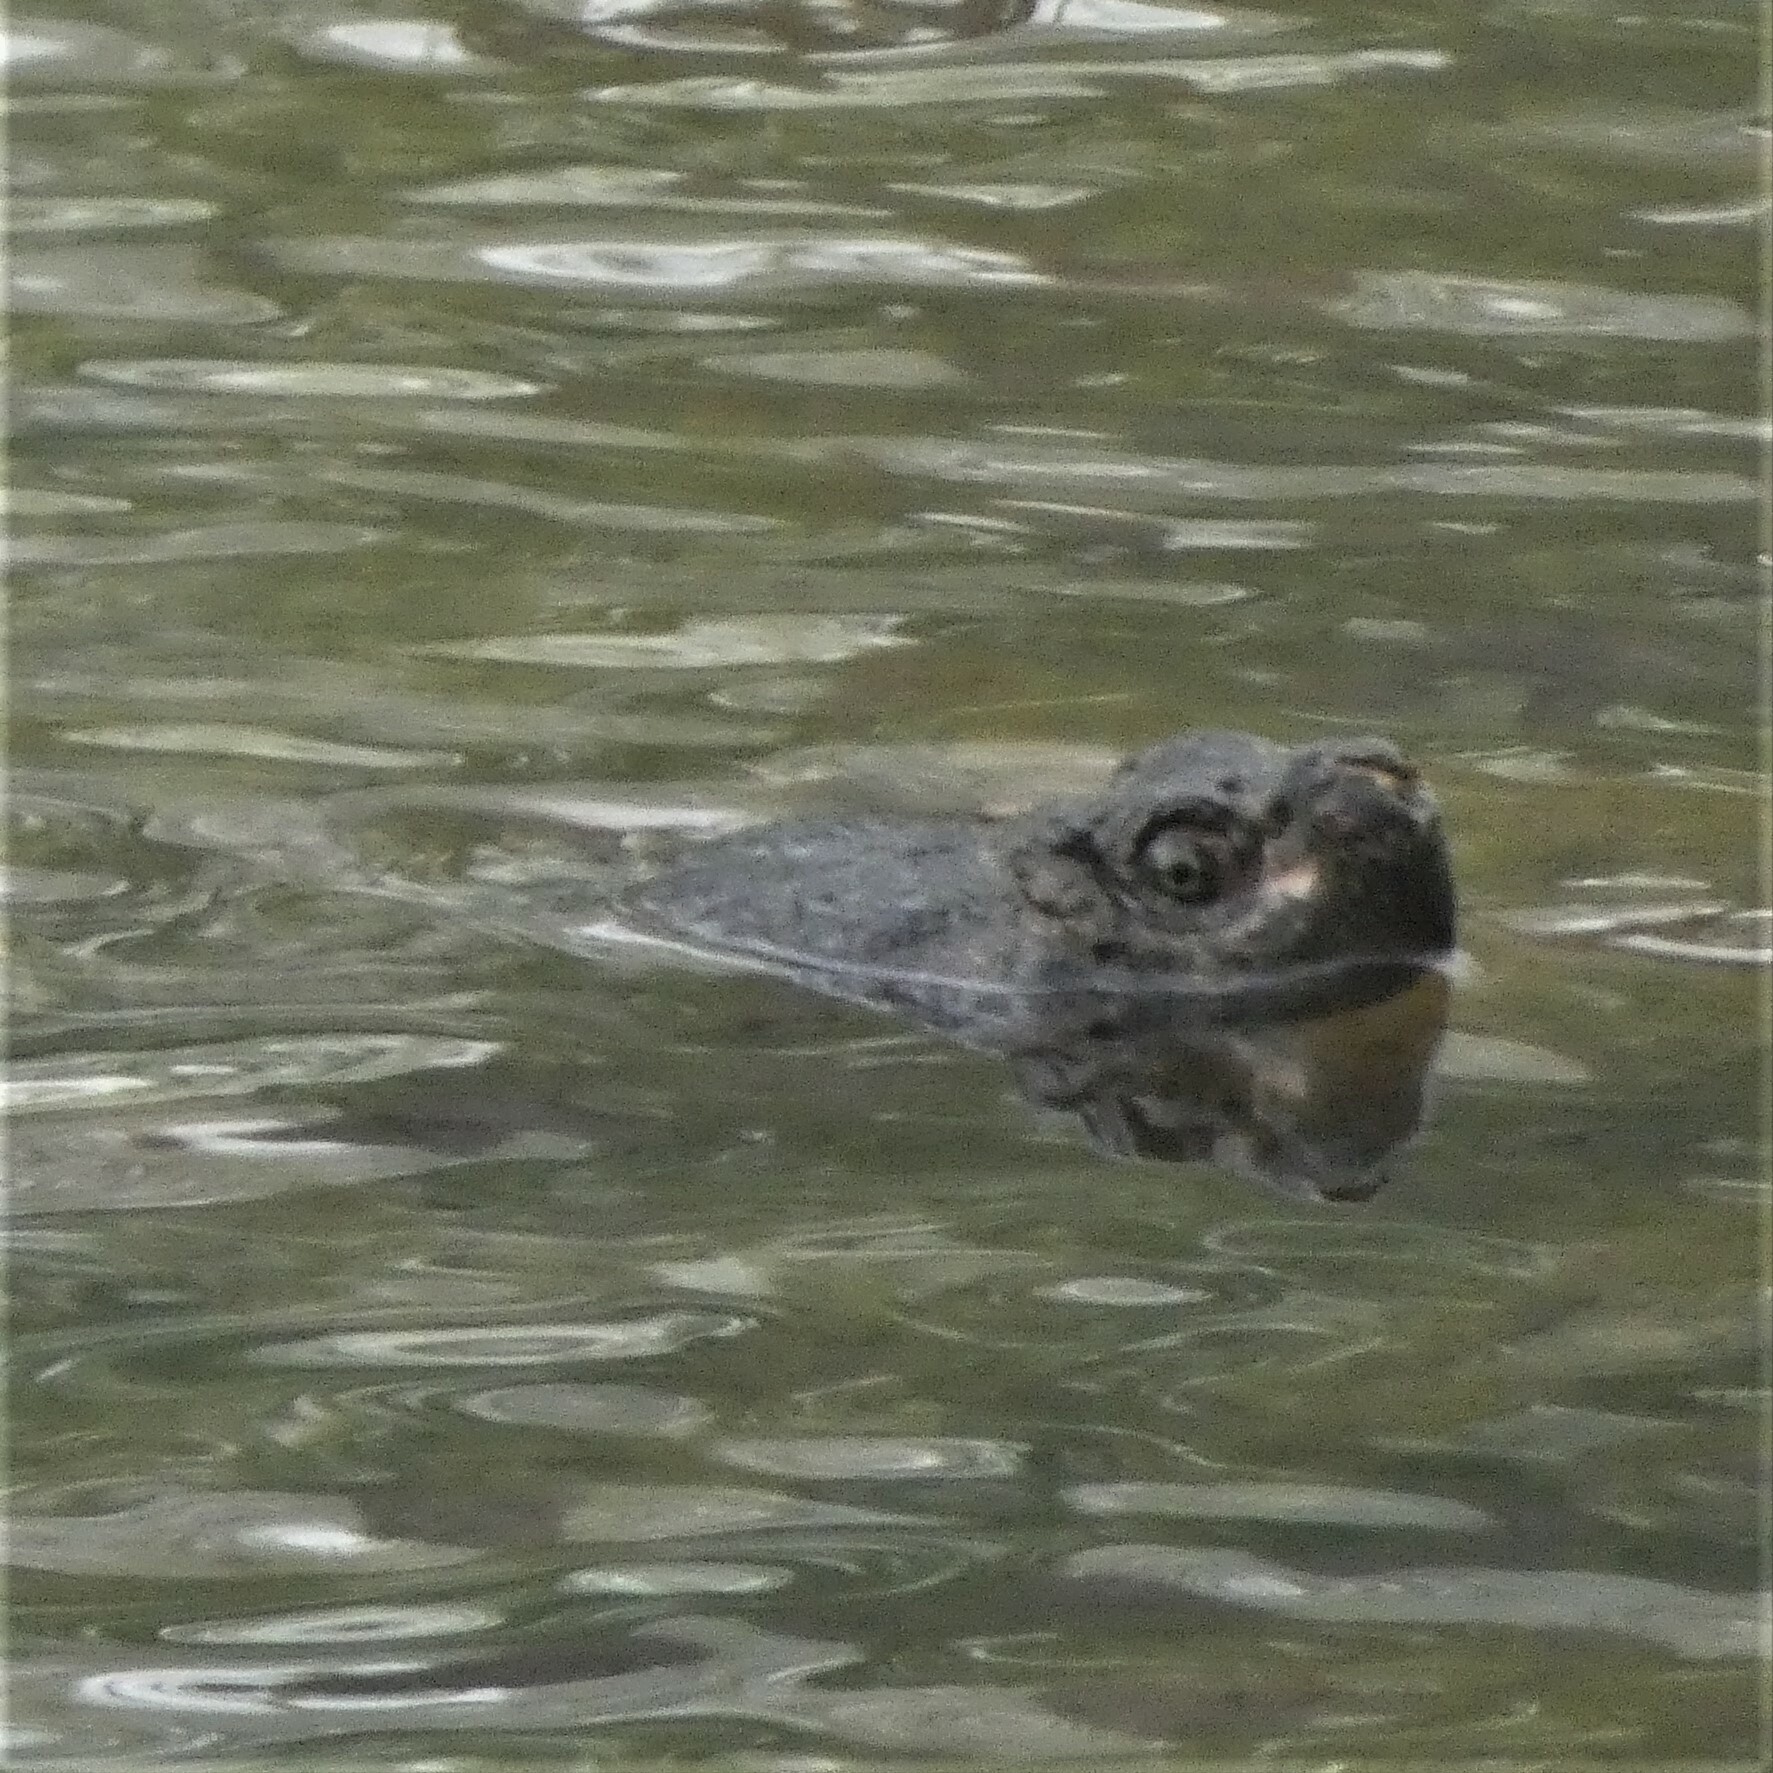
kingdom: Animalia
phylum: Chordata
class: Testudines
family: Chelydridae
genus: Chelydra
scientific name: Chelydra serpentina
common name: Common snapping turtle
